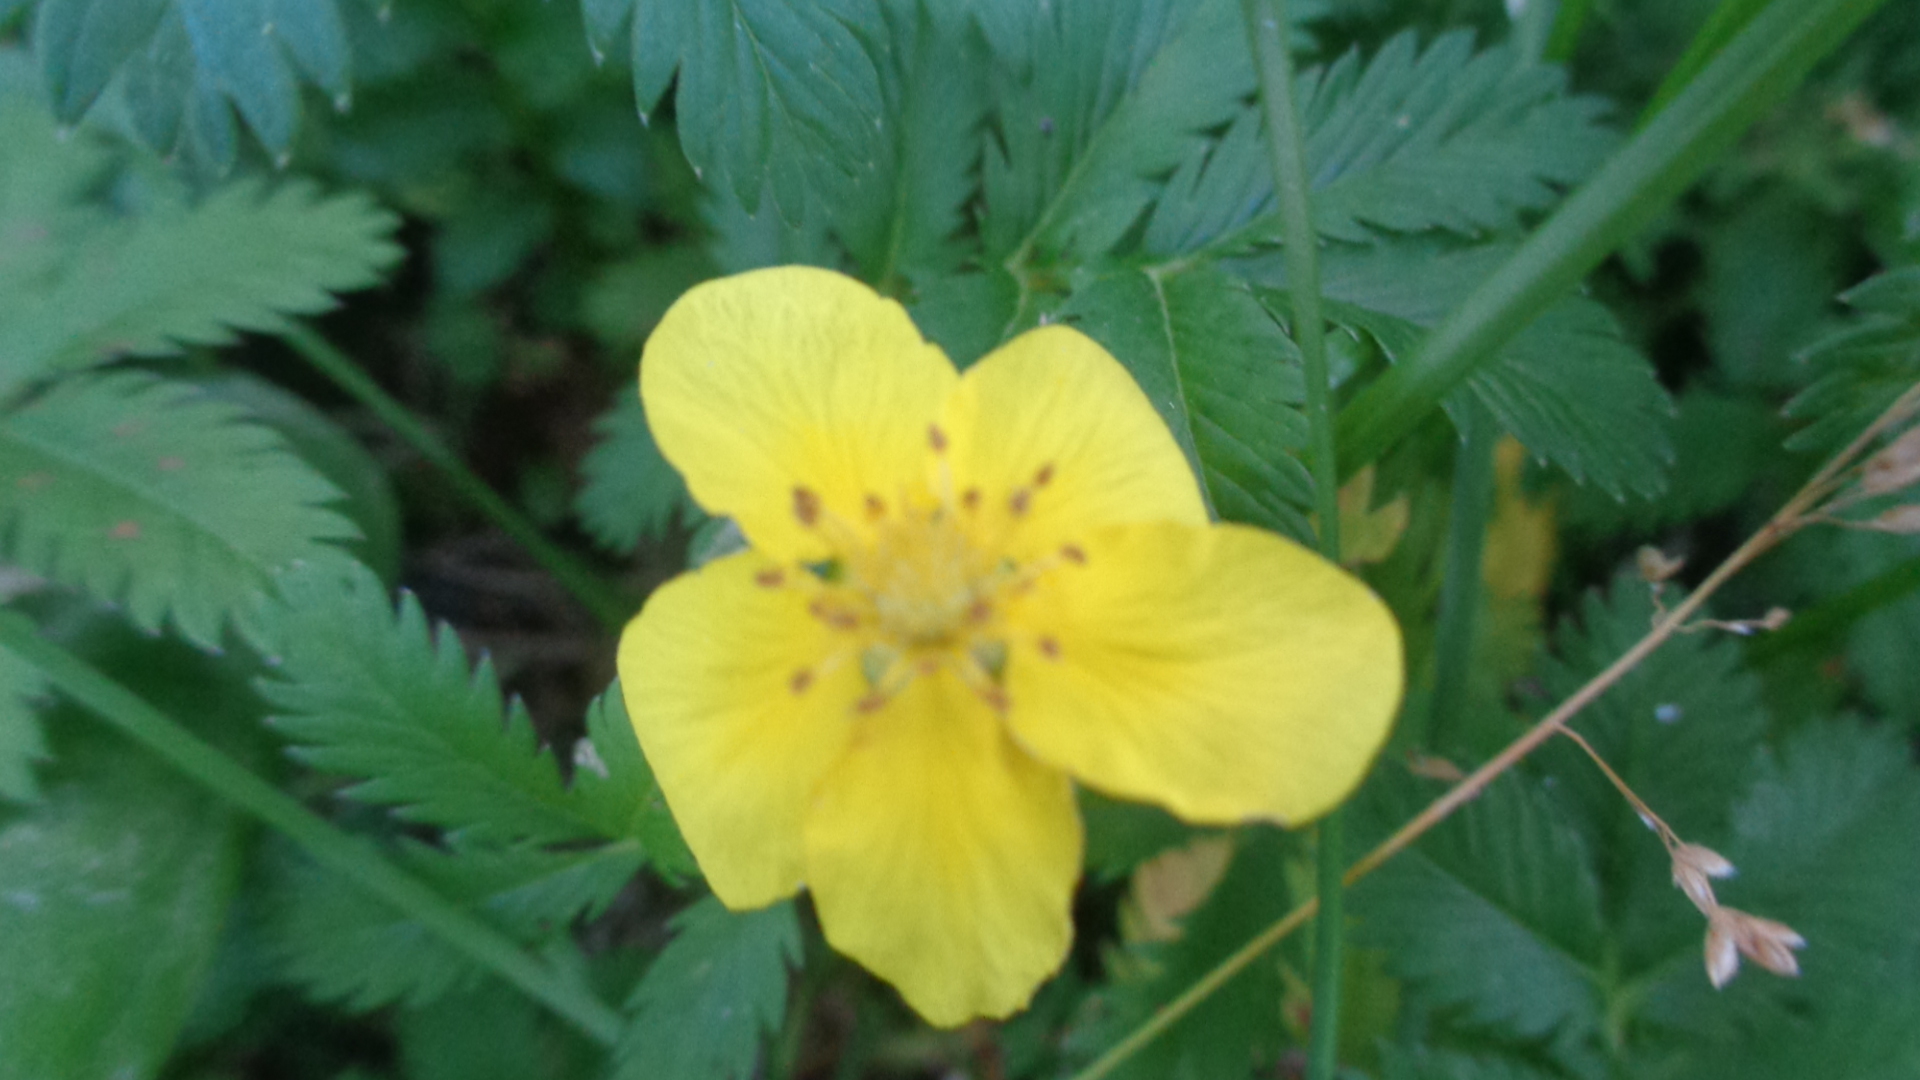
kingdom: Plantae
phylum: Tracheophyta
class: Magnoliopsida
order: Rosales
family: Rosaceae
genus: Argentina
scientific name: Argentina anserina
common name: Common silverweed
